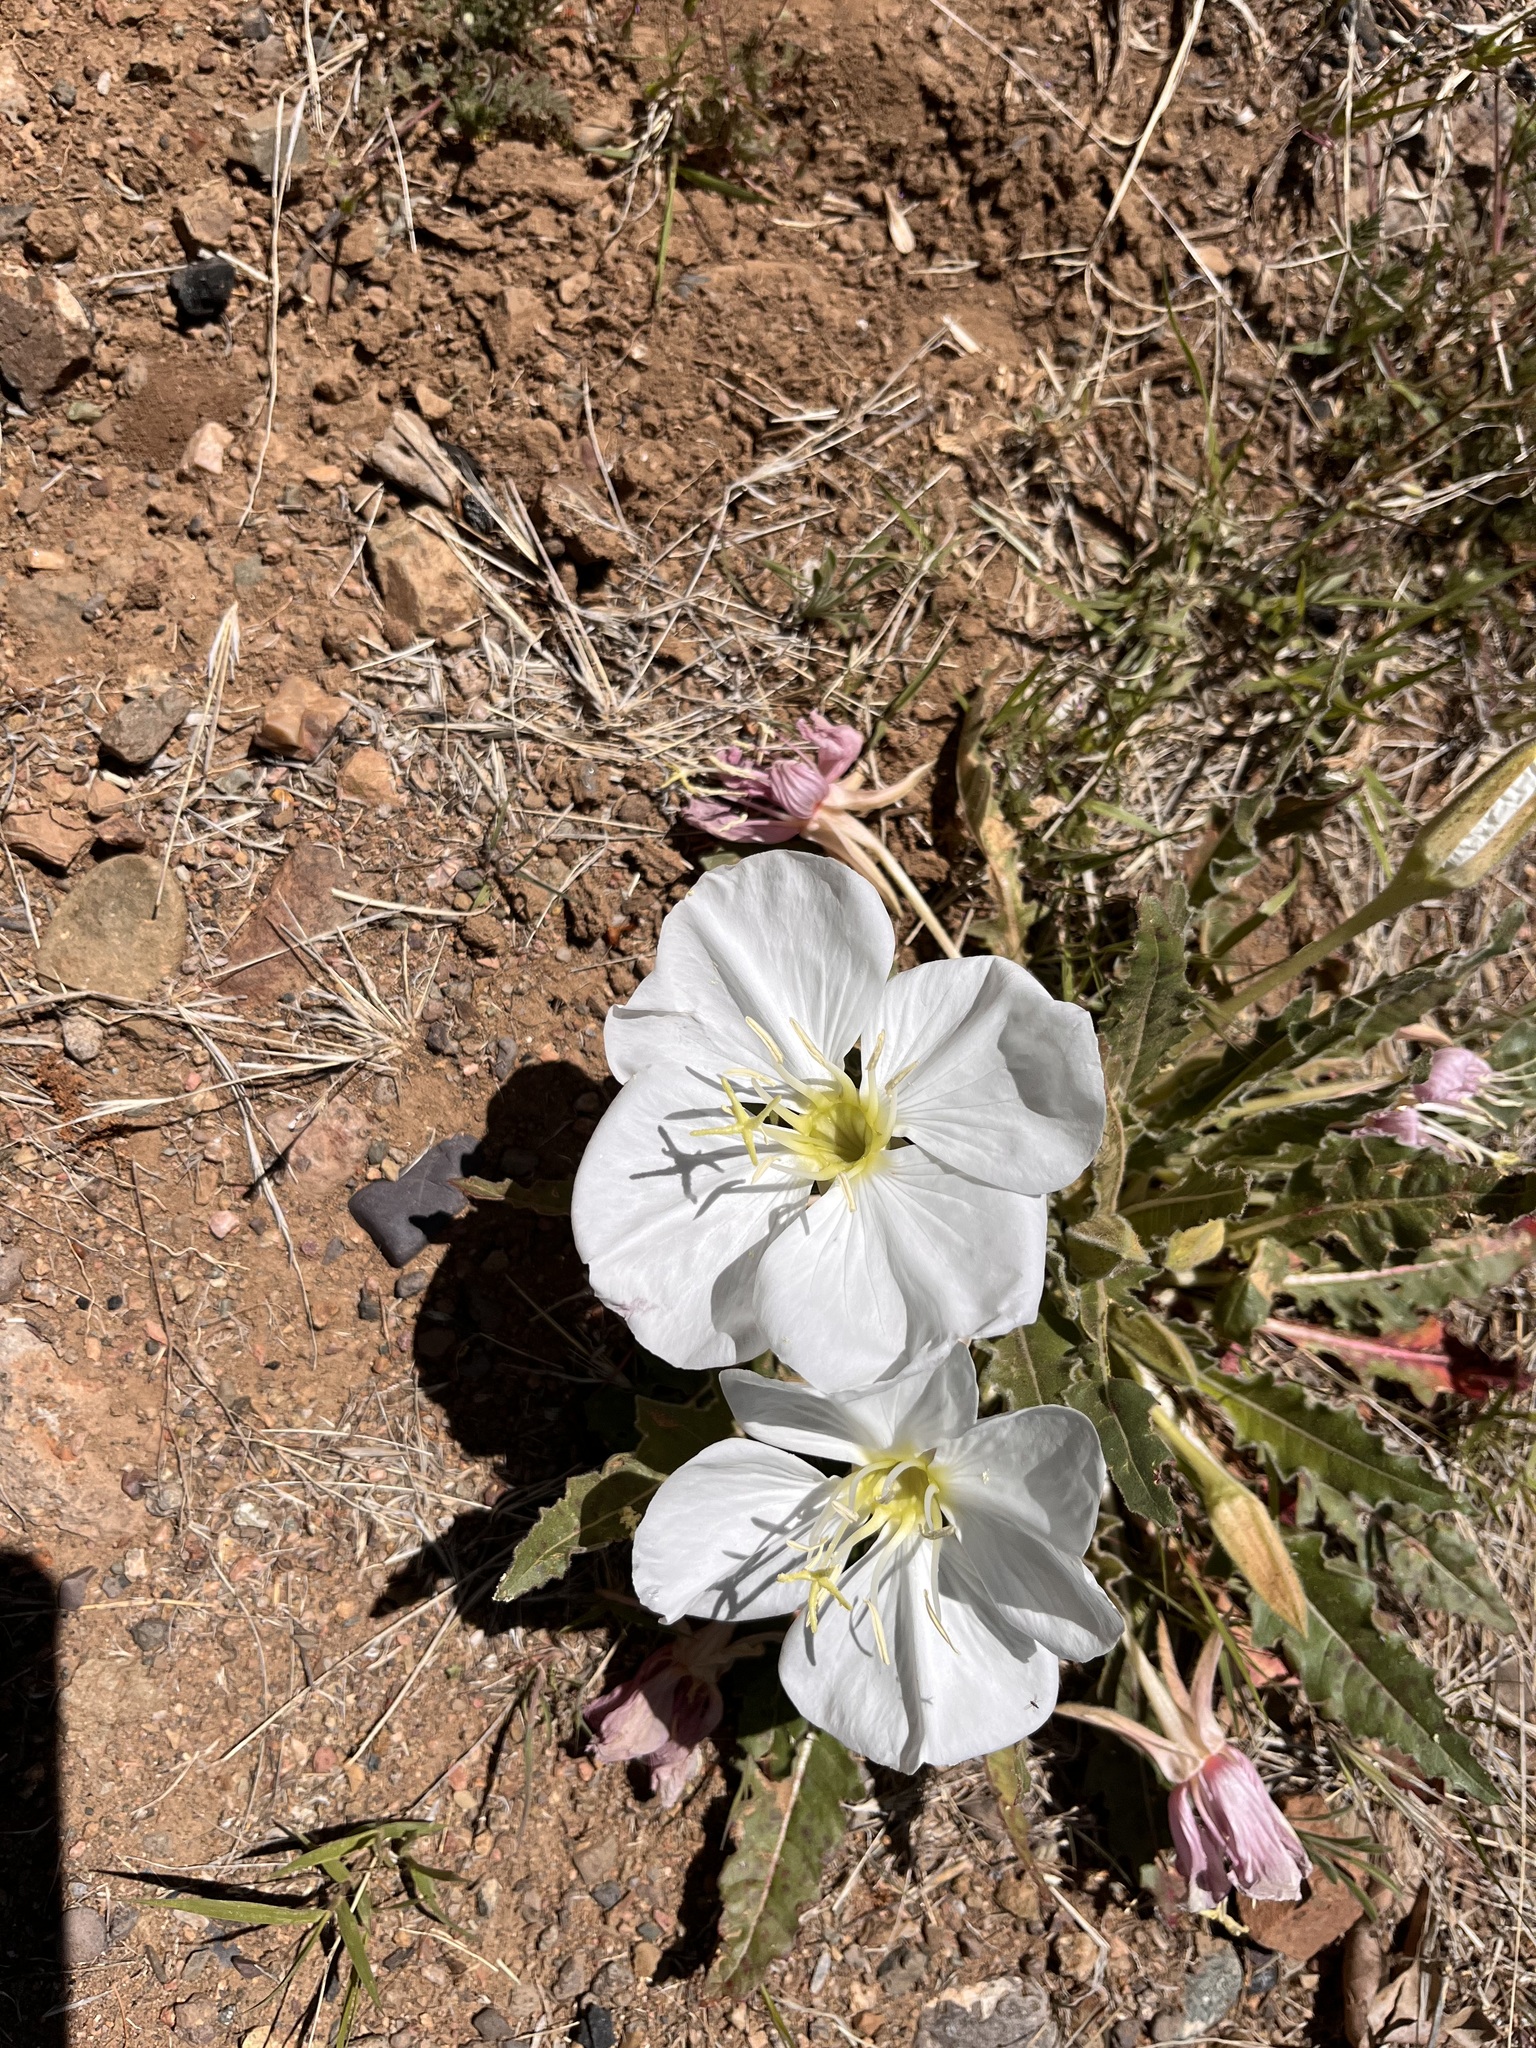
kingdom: Plantae
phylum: Tracheophyta
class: Magnoliopsida
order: Myrtales
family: Onagraceae
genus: Oenothera
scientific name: Oenothera cespitosa
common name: Tufted evening-primrose
